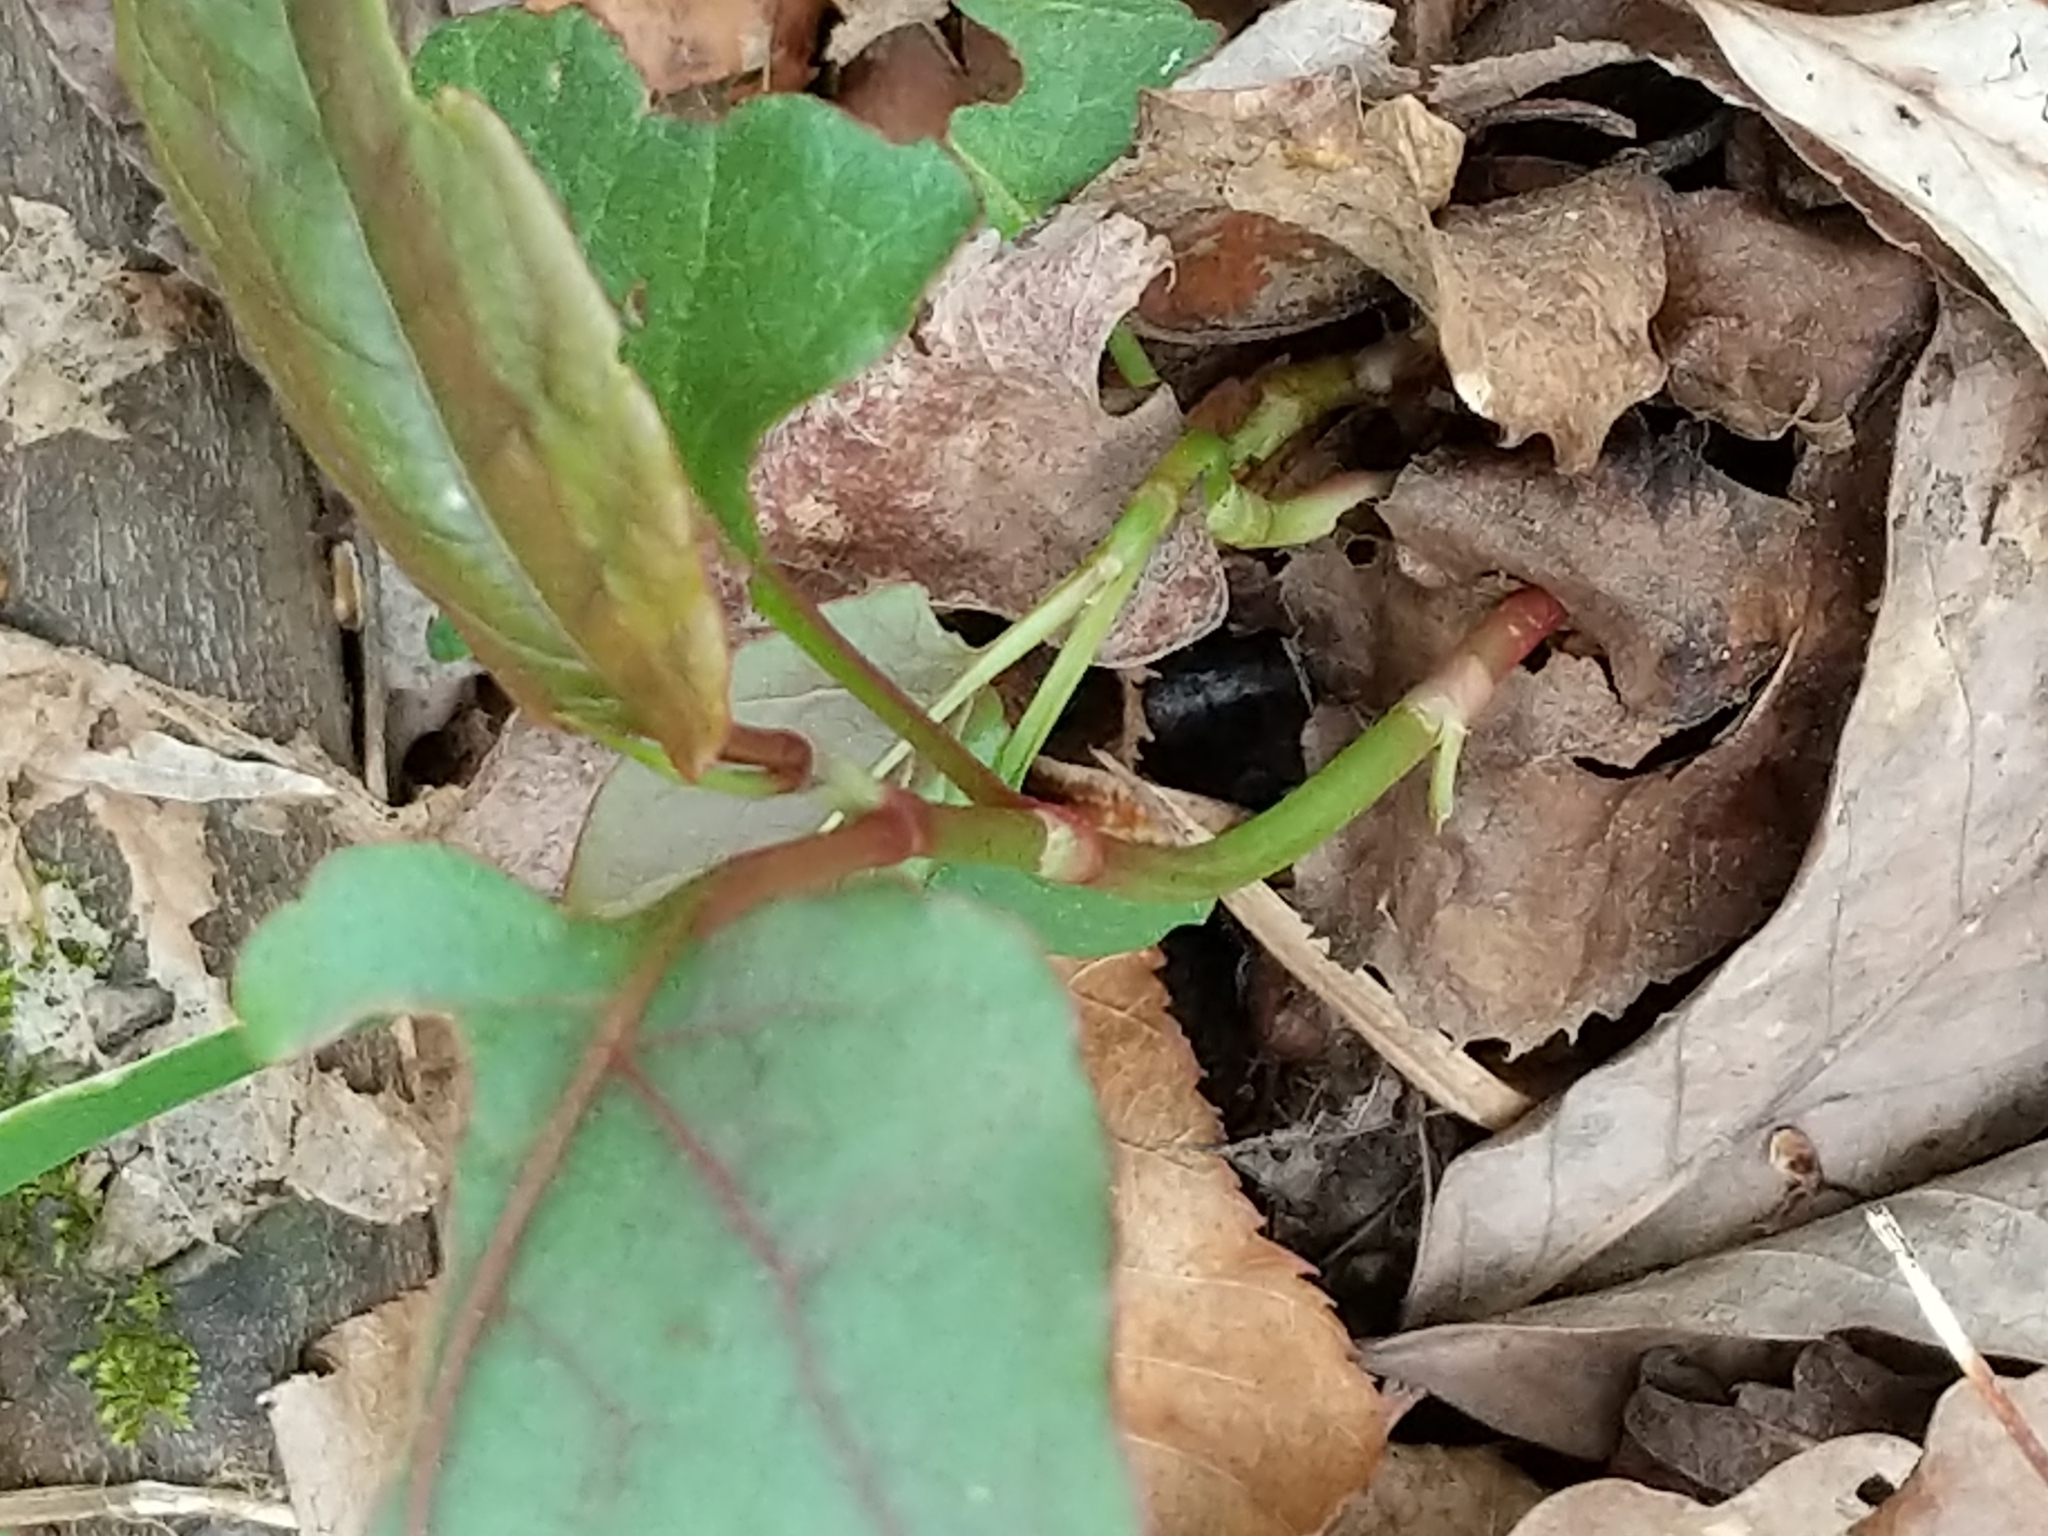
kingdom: Plantae
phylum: Tracheophyta
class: Magnoliopsida
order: Caryophyllales
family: Polygonaceae
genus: Reynoutria
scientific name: Reynoutria japonica
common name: Japanese knotweed
